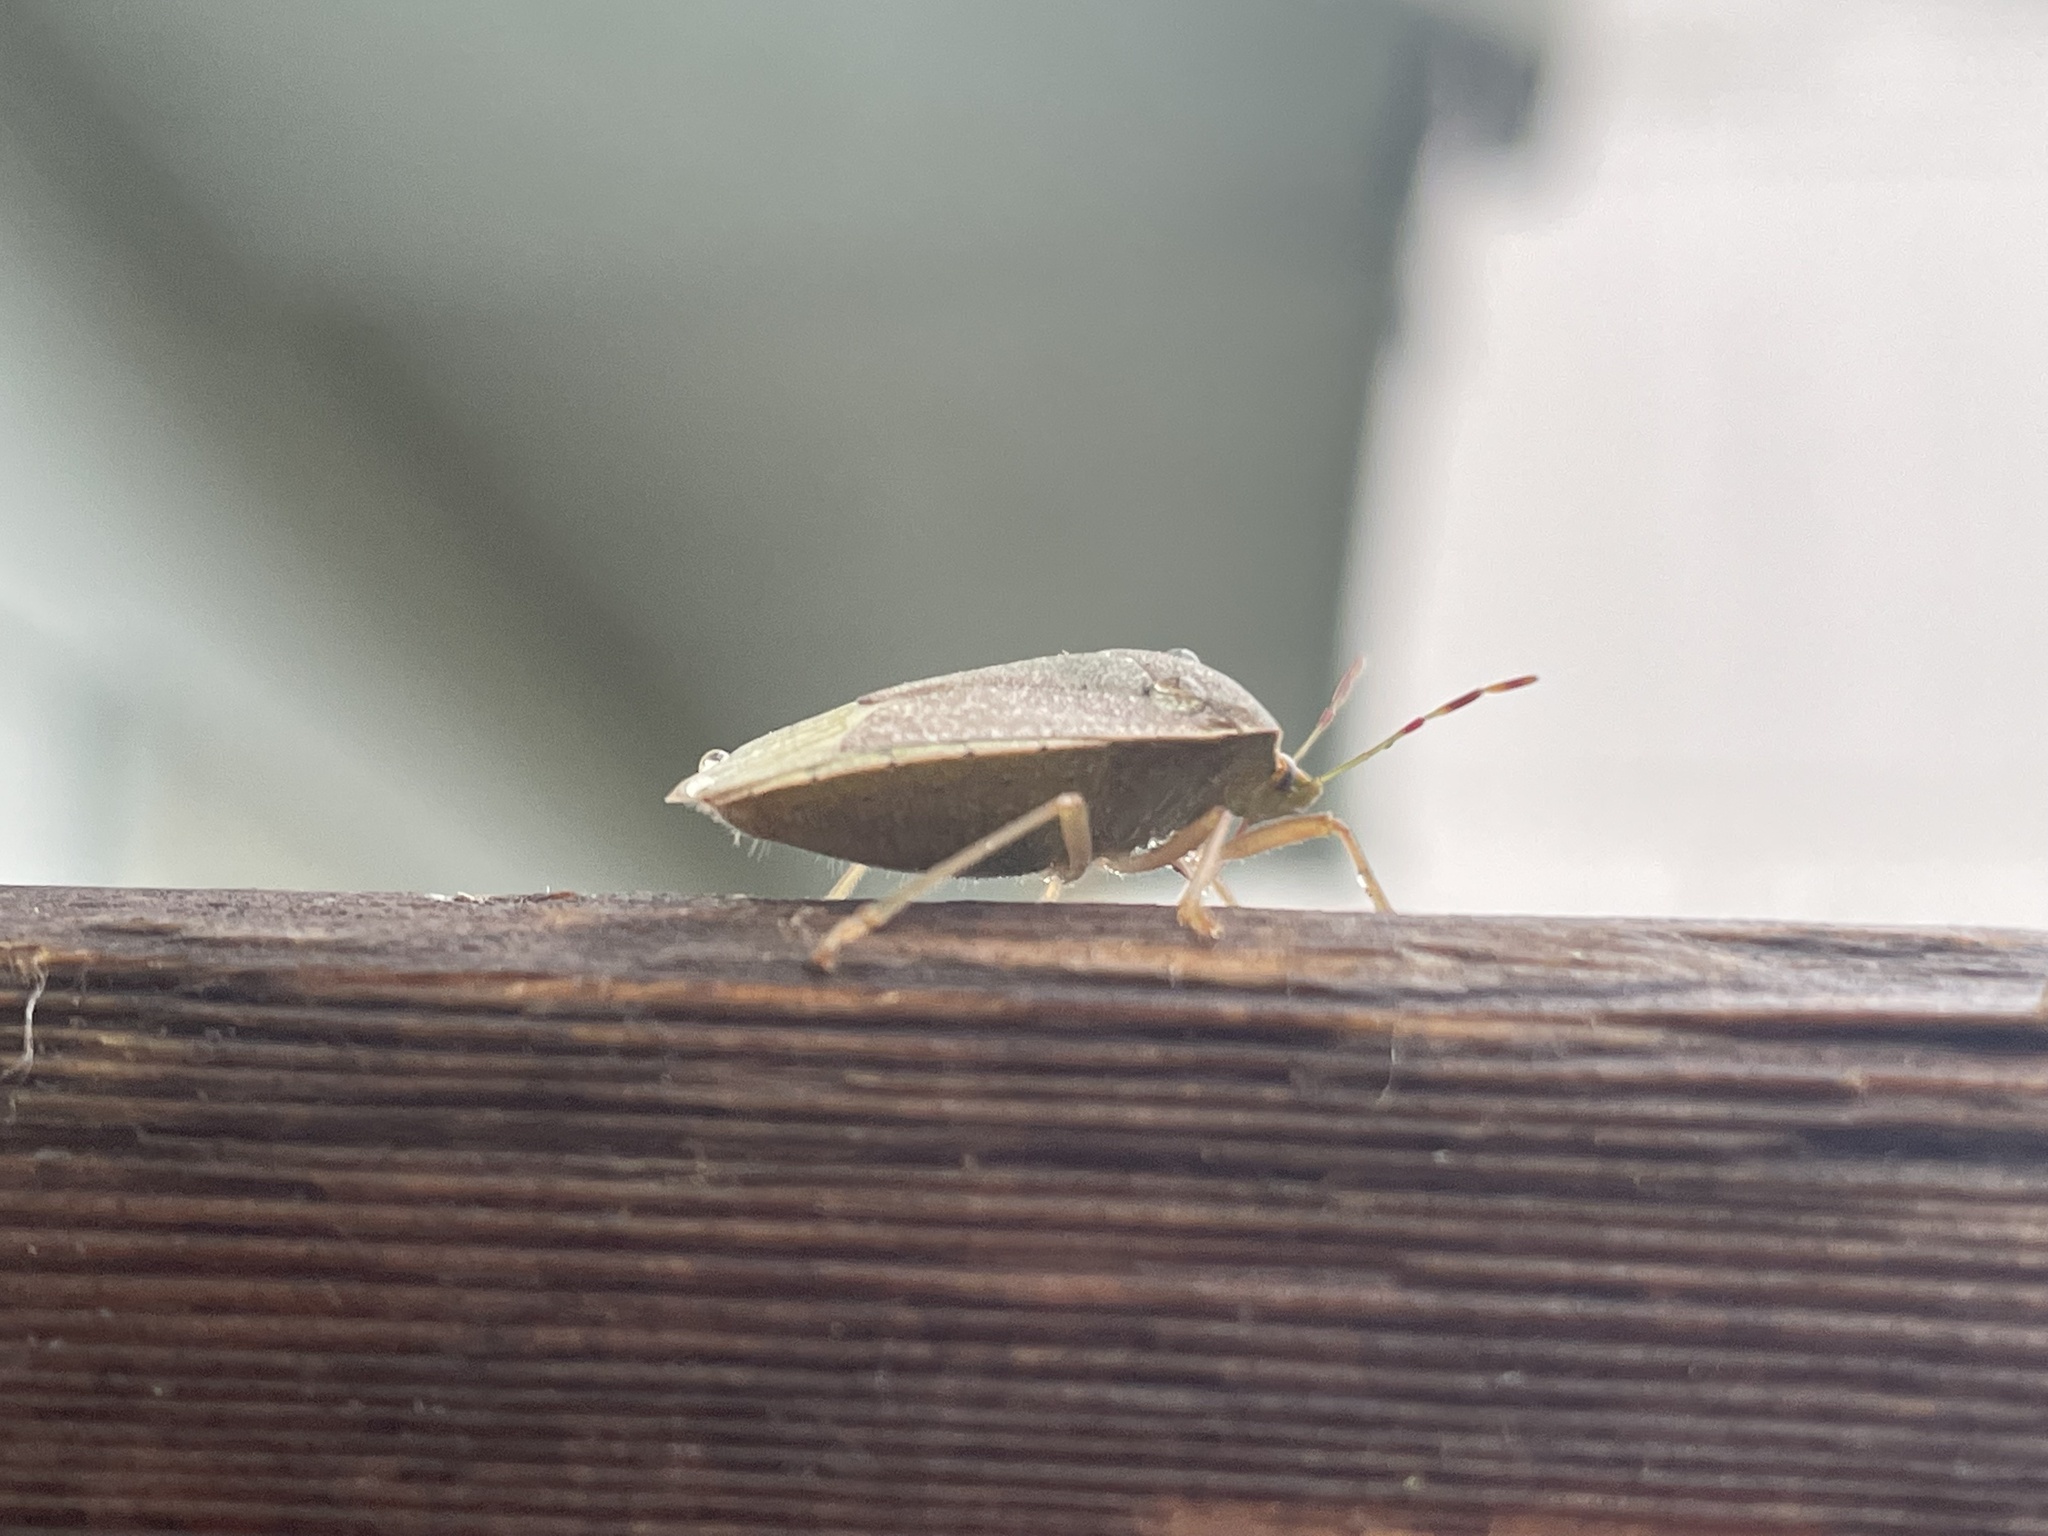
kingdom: Animalia
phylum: Arthropoda
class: Insecta
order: Hemiptera
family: Pentatomidae
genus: Nezara
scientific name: Nezara viridula
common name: Southern green stink bug
